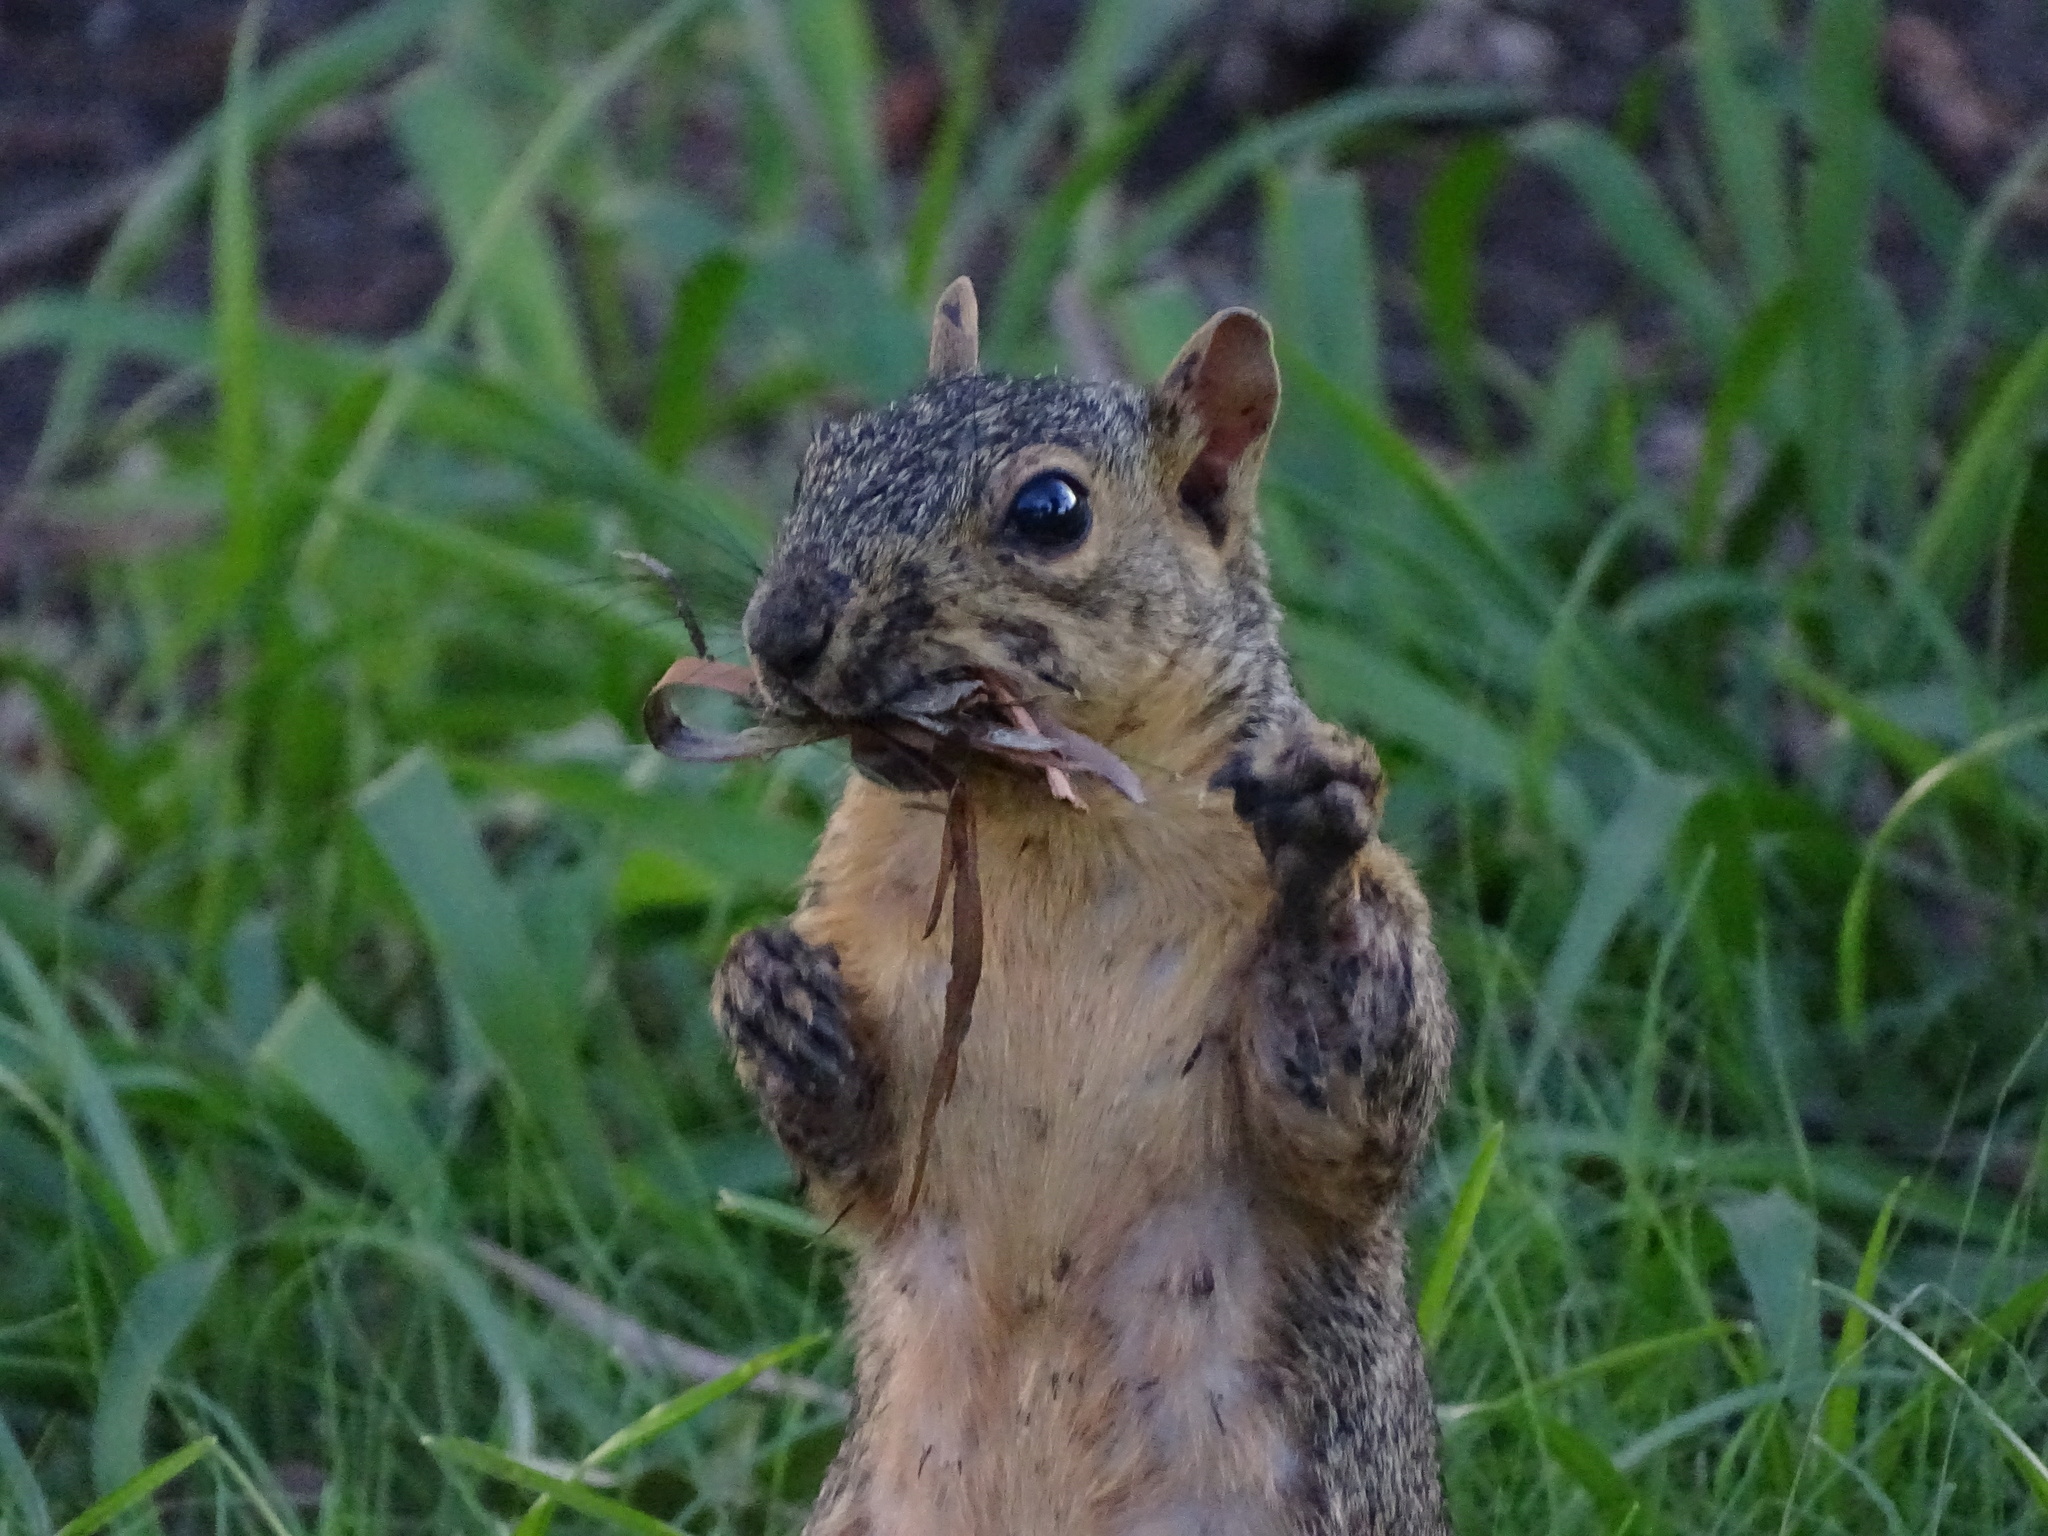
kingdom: Animalia
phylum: Chordata
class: Mammalia
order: Rodentia
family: Sciuridae
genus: Sciurus
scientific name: Sciurus niger
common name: Fox squirrel
